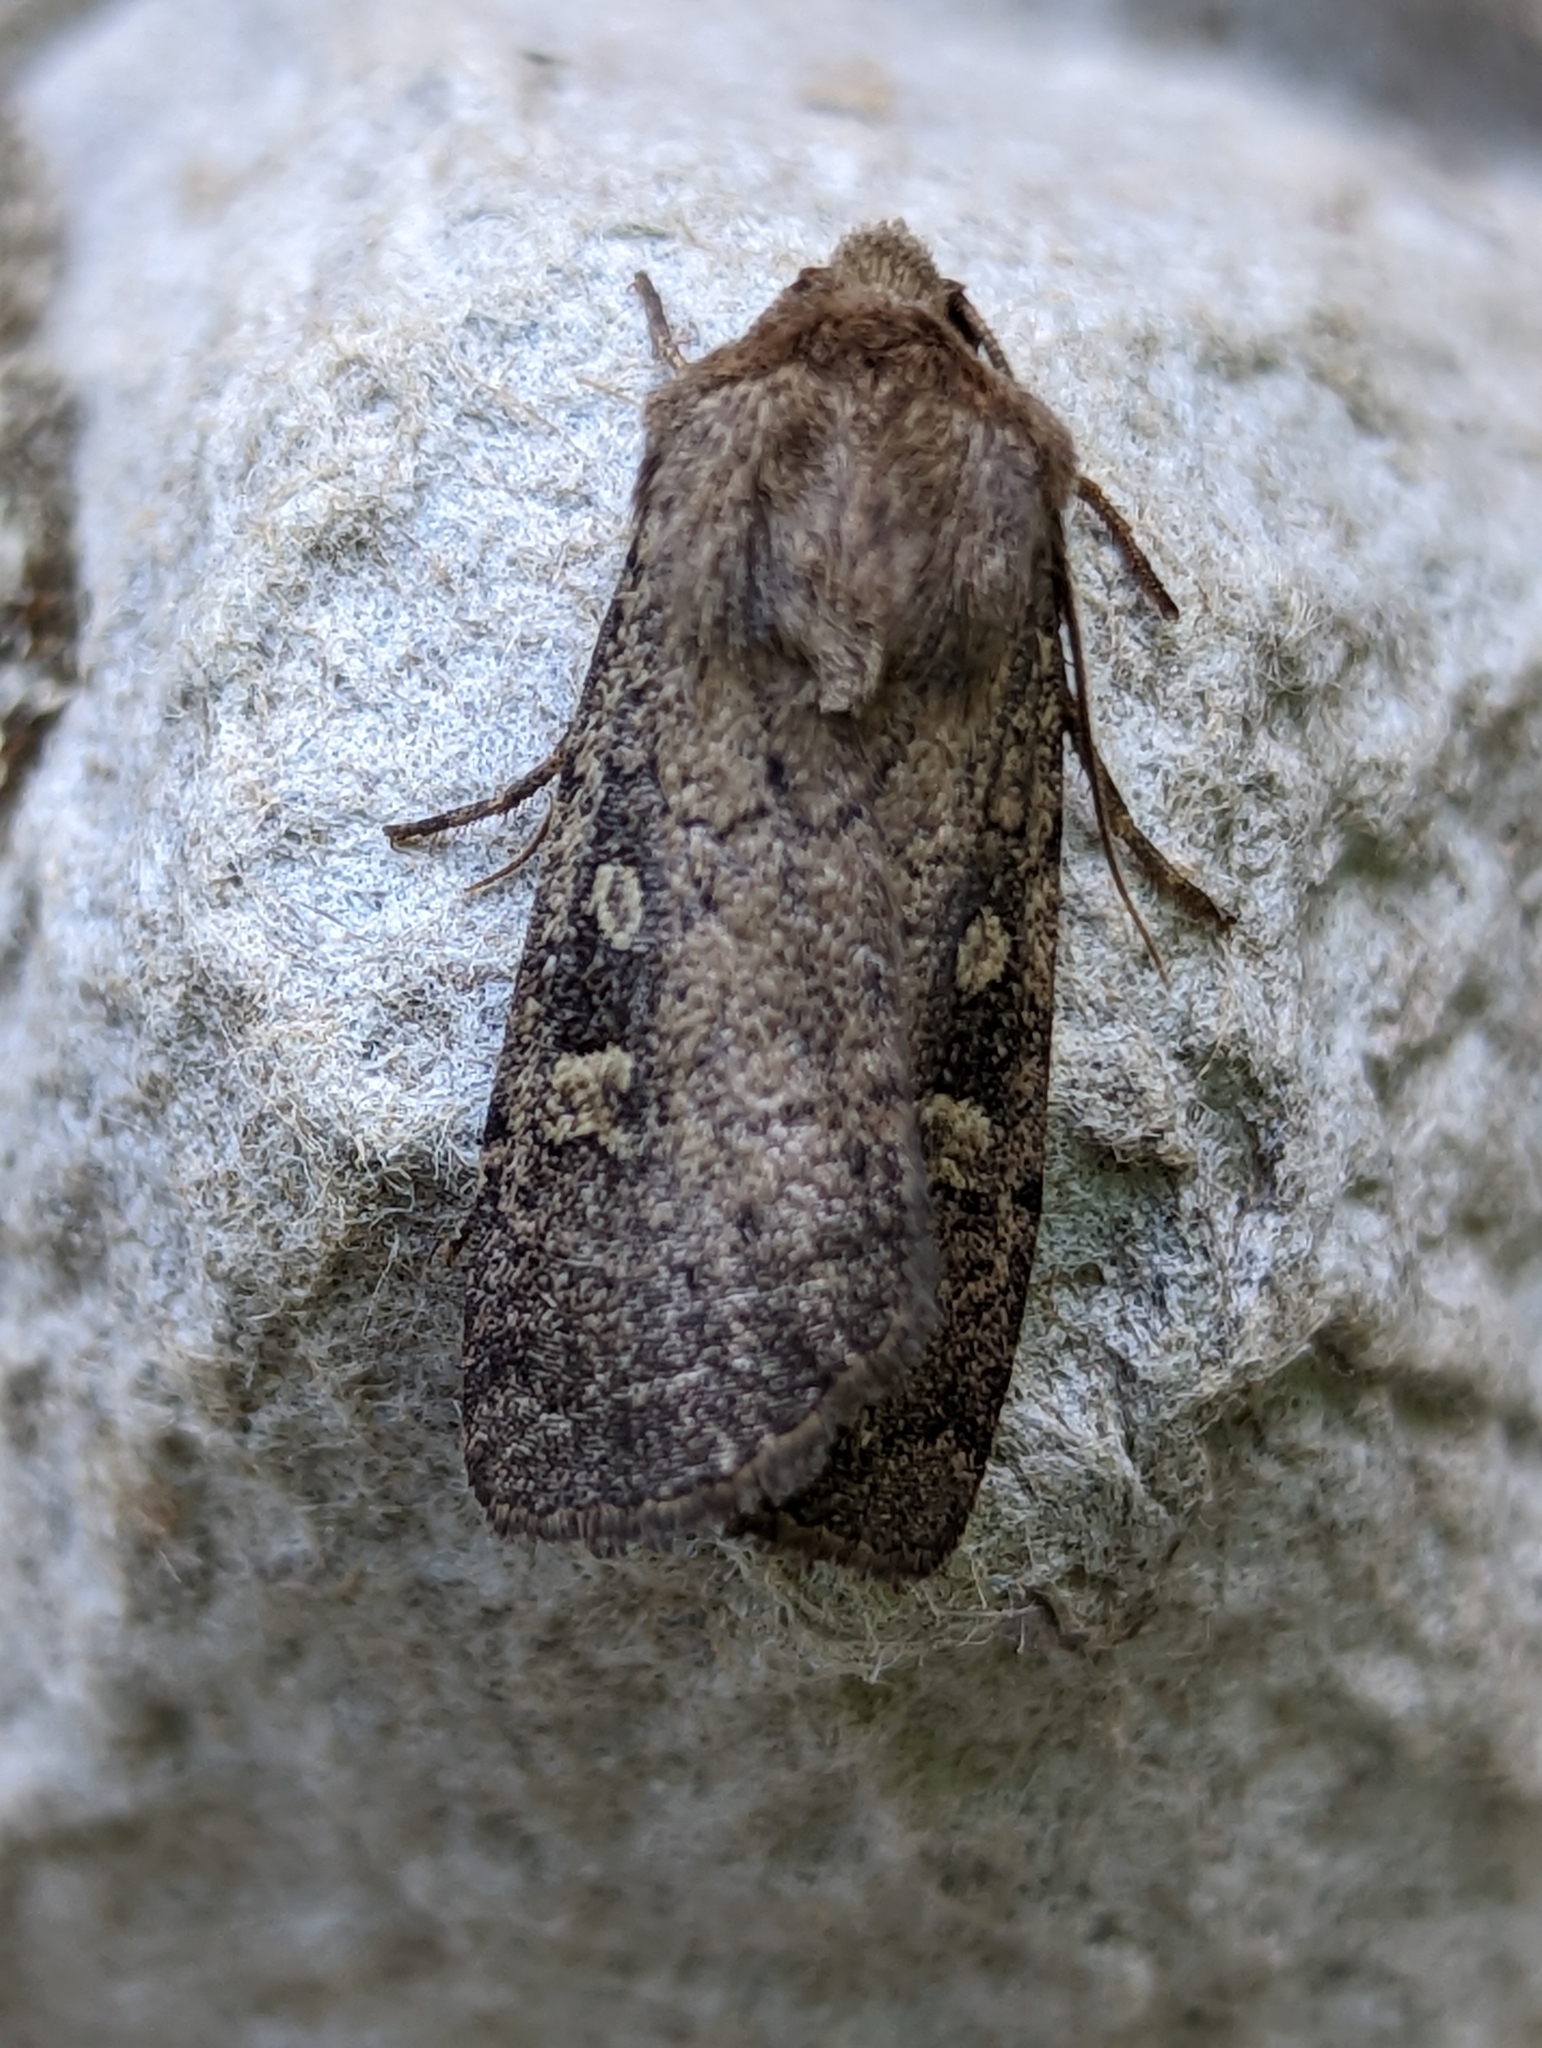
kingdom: Animalia
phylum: Arthropoda
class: Insecta
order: Lepidoptera
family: Noctuidae
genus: Xestia
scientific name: Xestia xanthographa
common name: Square-spot rustic
